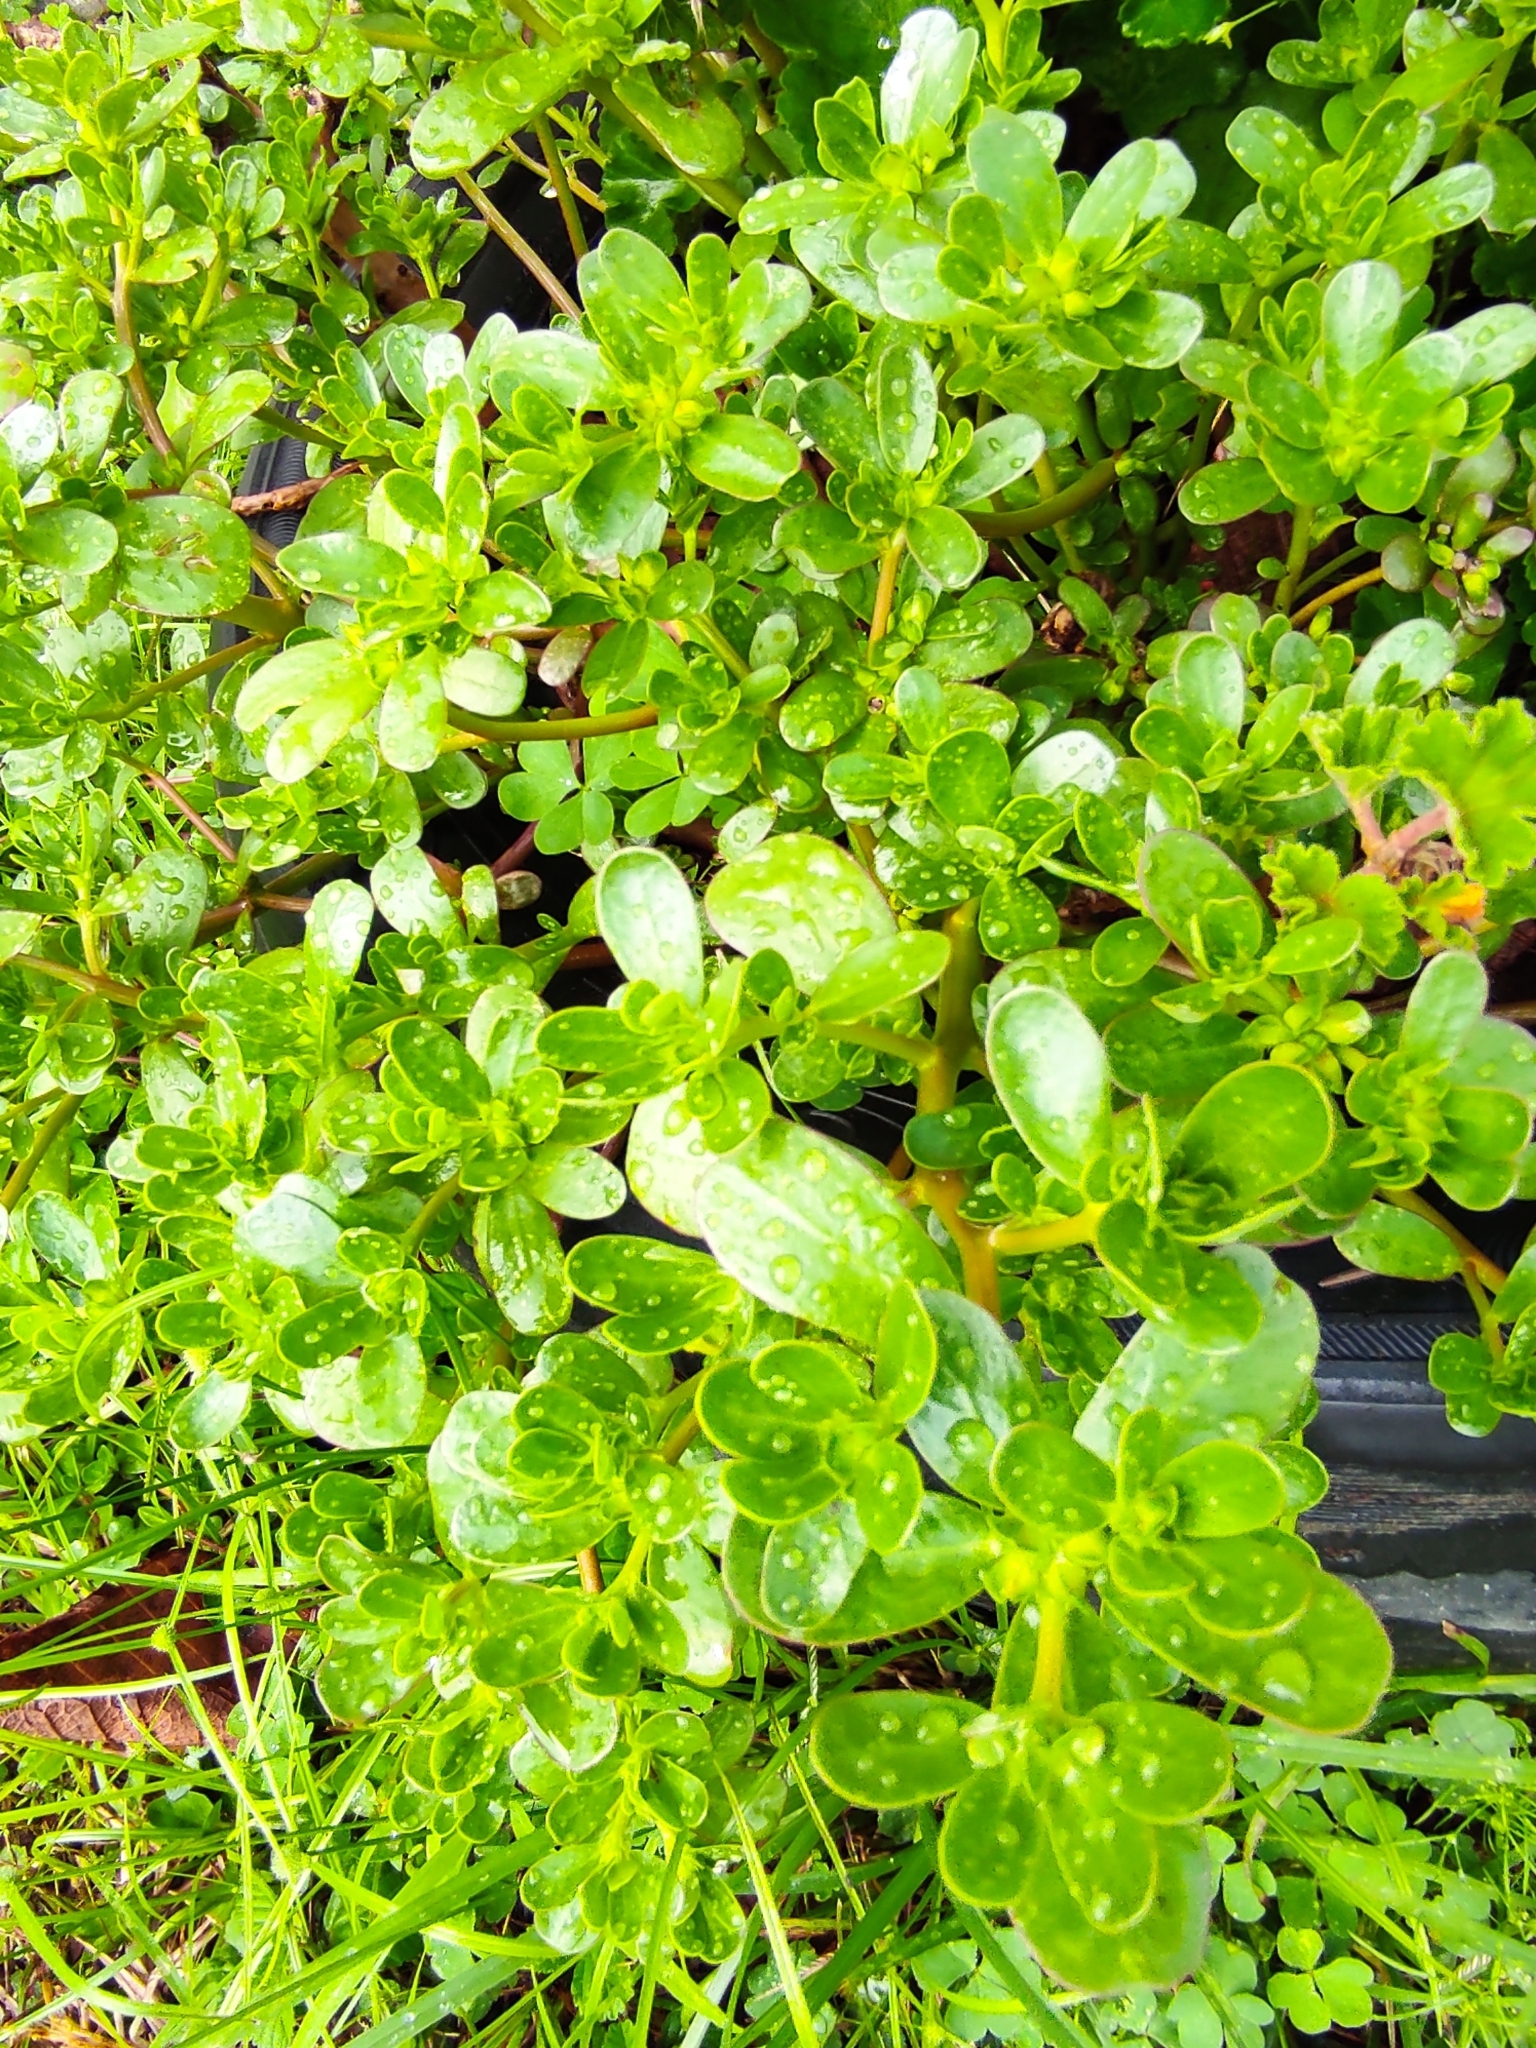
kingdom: Plantae
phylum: Tracheophyta
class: Magnoliopsida
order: Caryophyllales
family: Portulacaceae
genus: Portulaca
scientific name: Portulaca oleracea
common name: Common purslane
